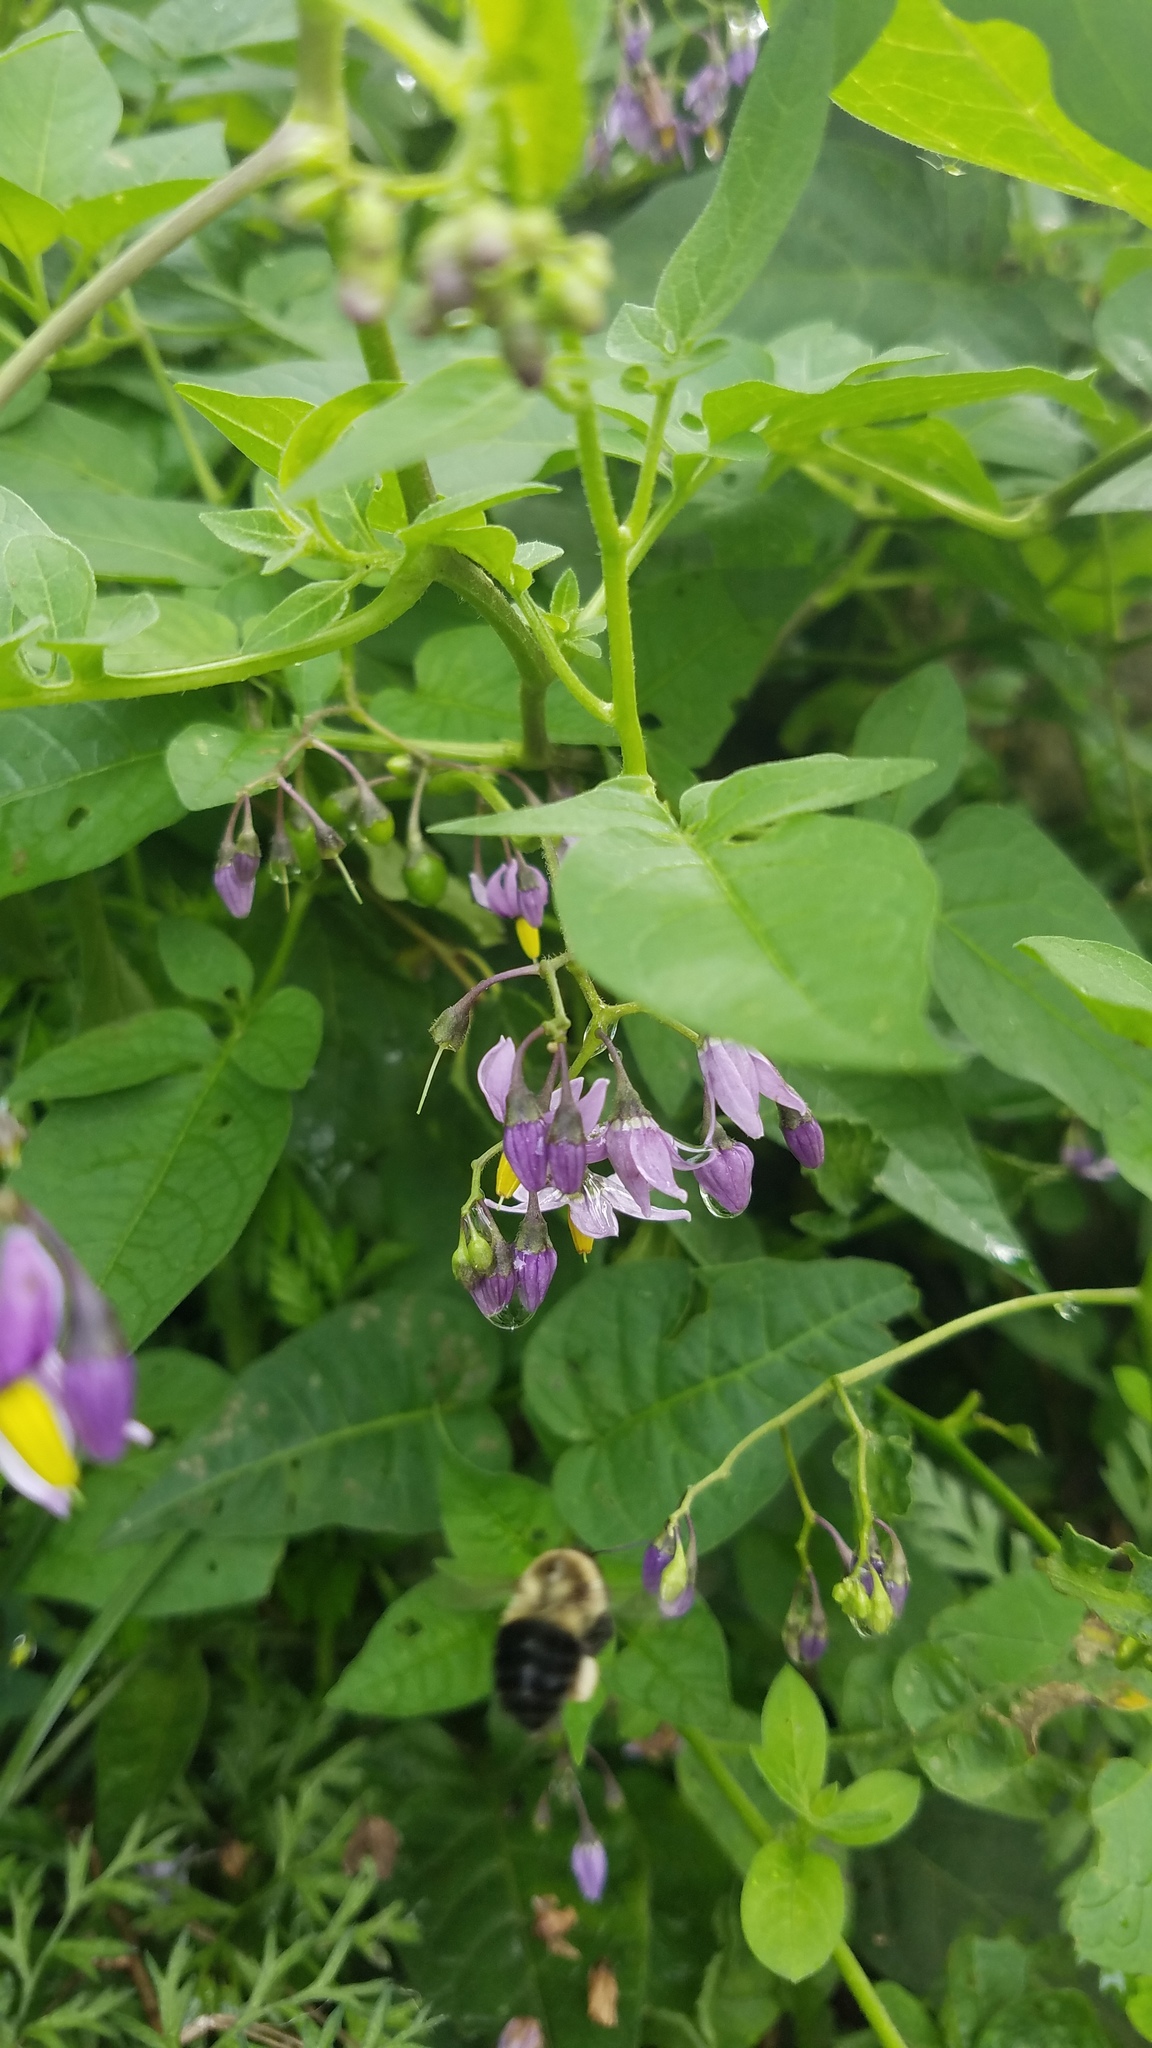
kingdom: Animalia
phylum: Arthropoda
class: Insecta
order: Hymenoptera
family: Apidae
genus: Bombus
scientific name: Bombus impatiens
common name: Common eastern bumble bee
